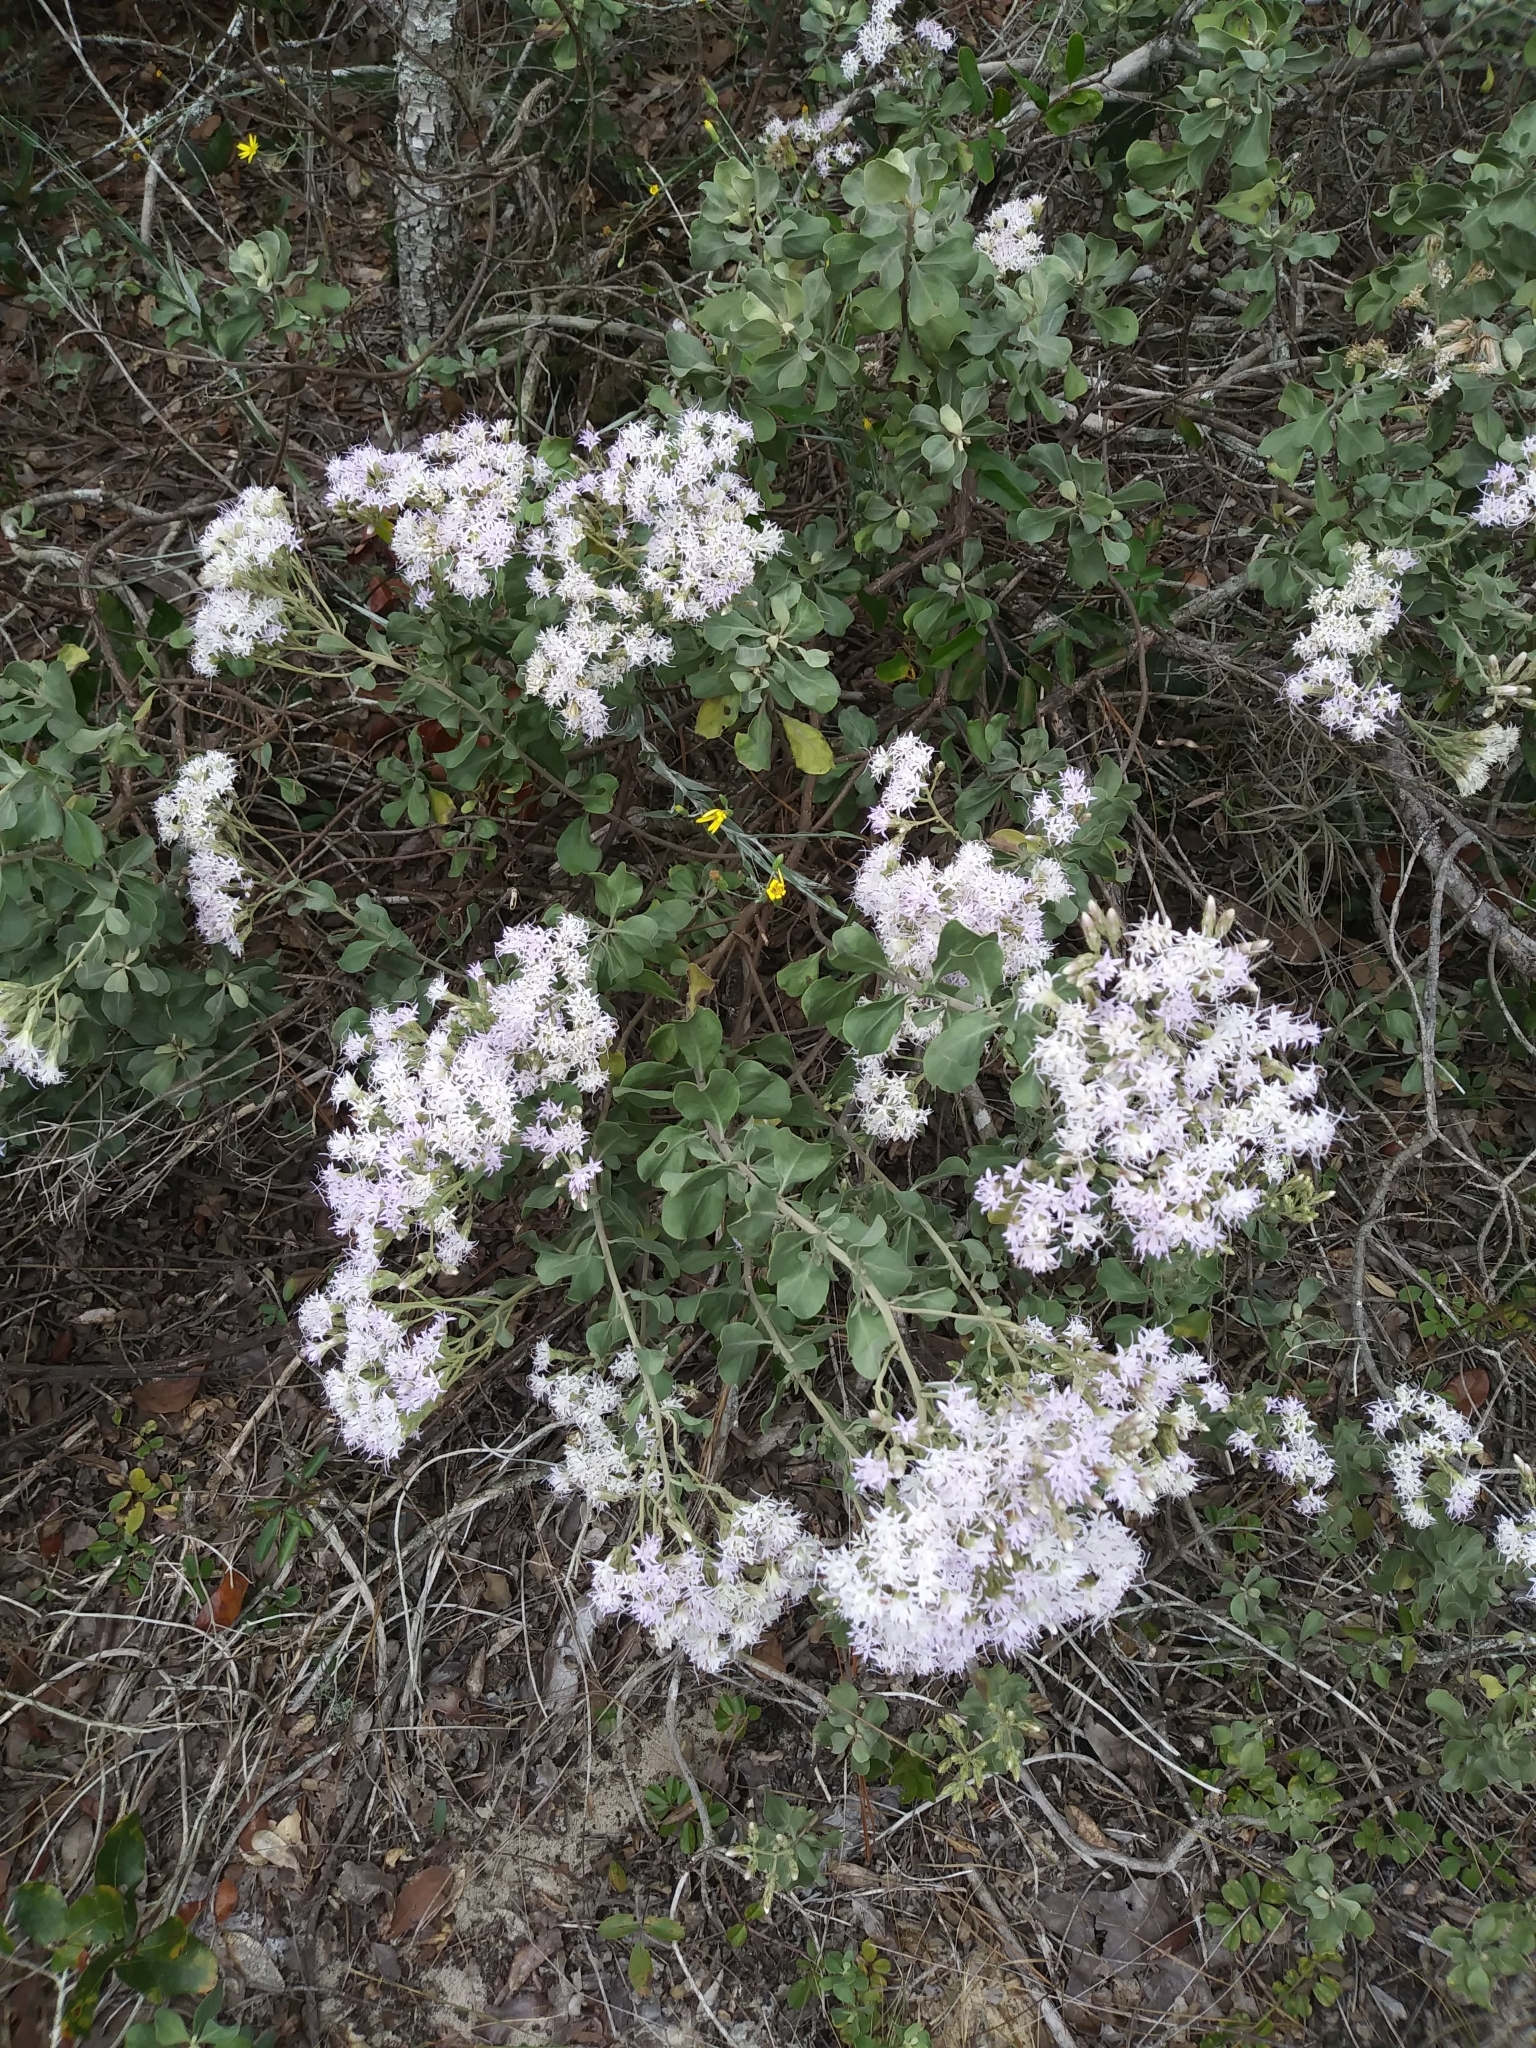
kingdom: Plantae
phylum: Tracheophyta
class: Magnoliopsida
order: Asterales
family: Asteraceae
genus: Garberia
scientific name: Garberia heterophylla
